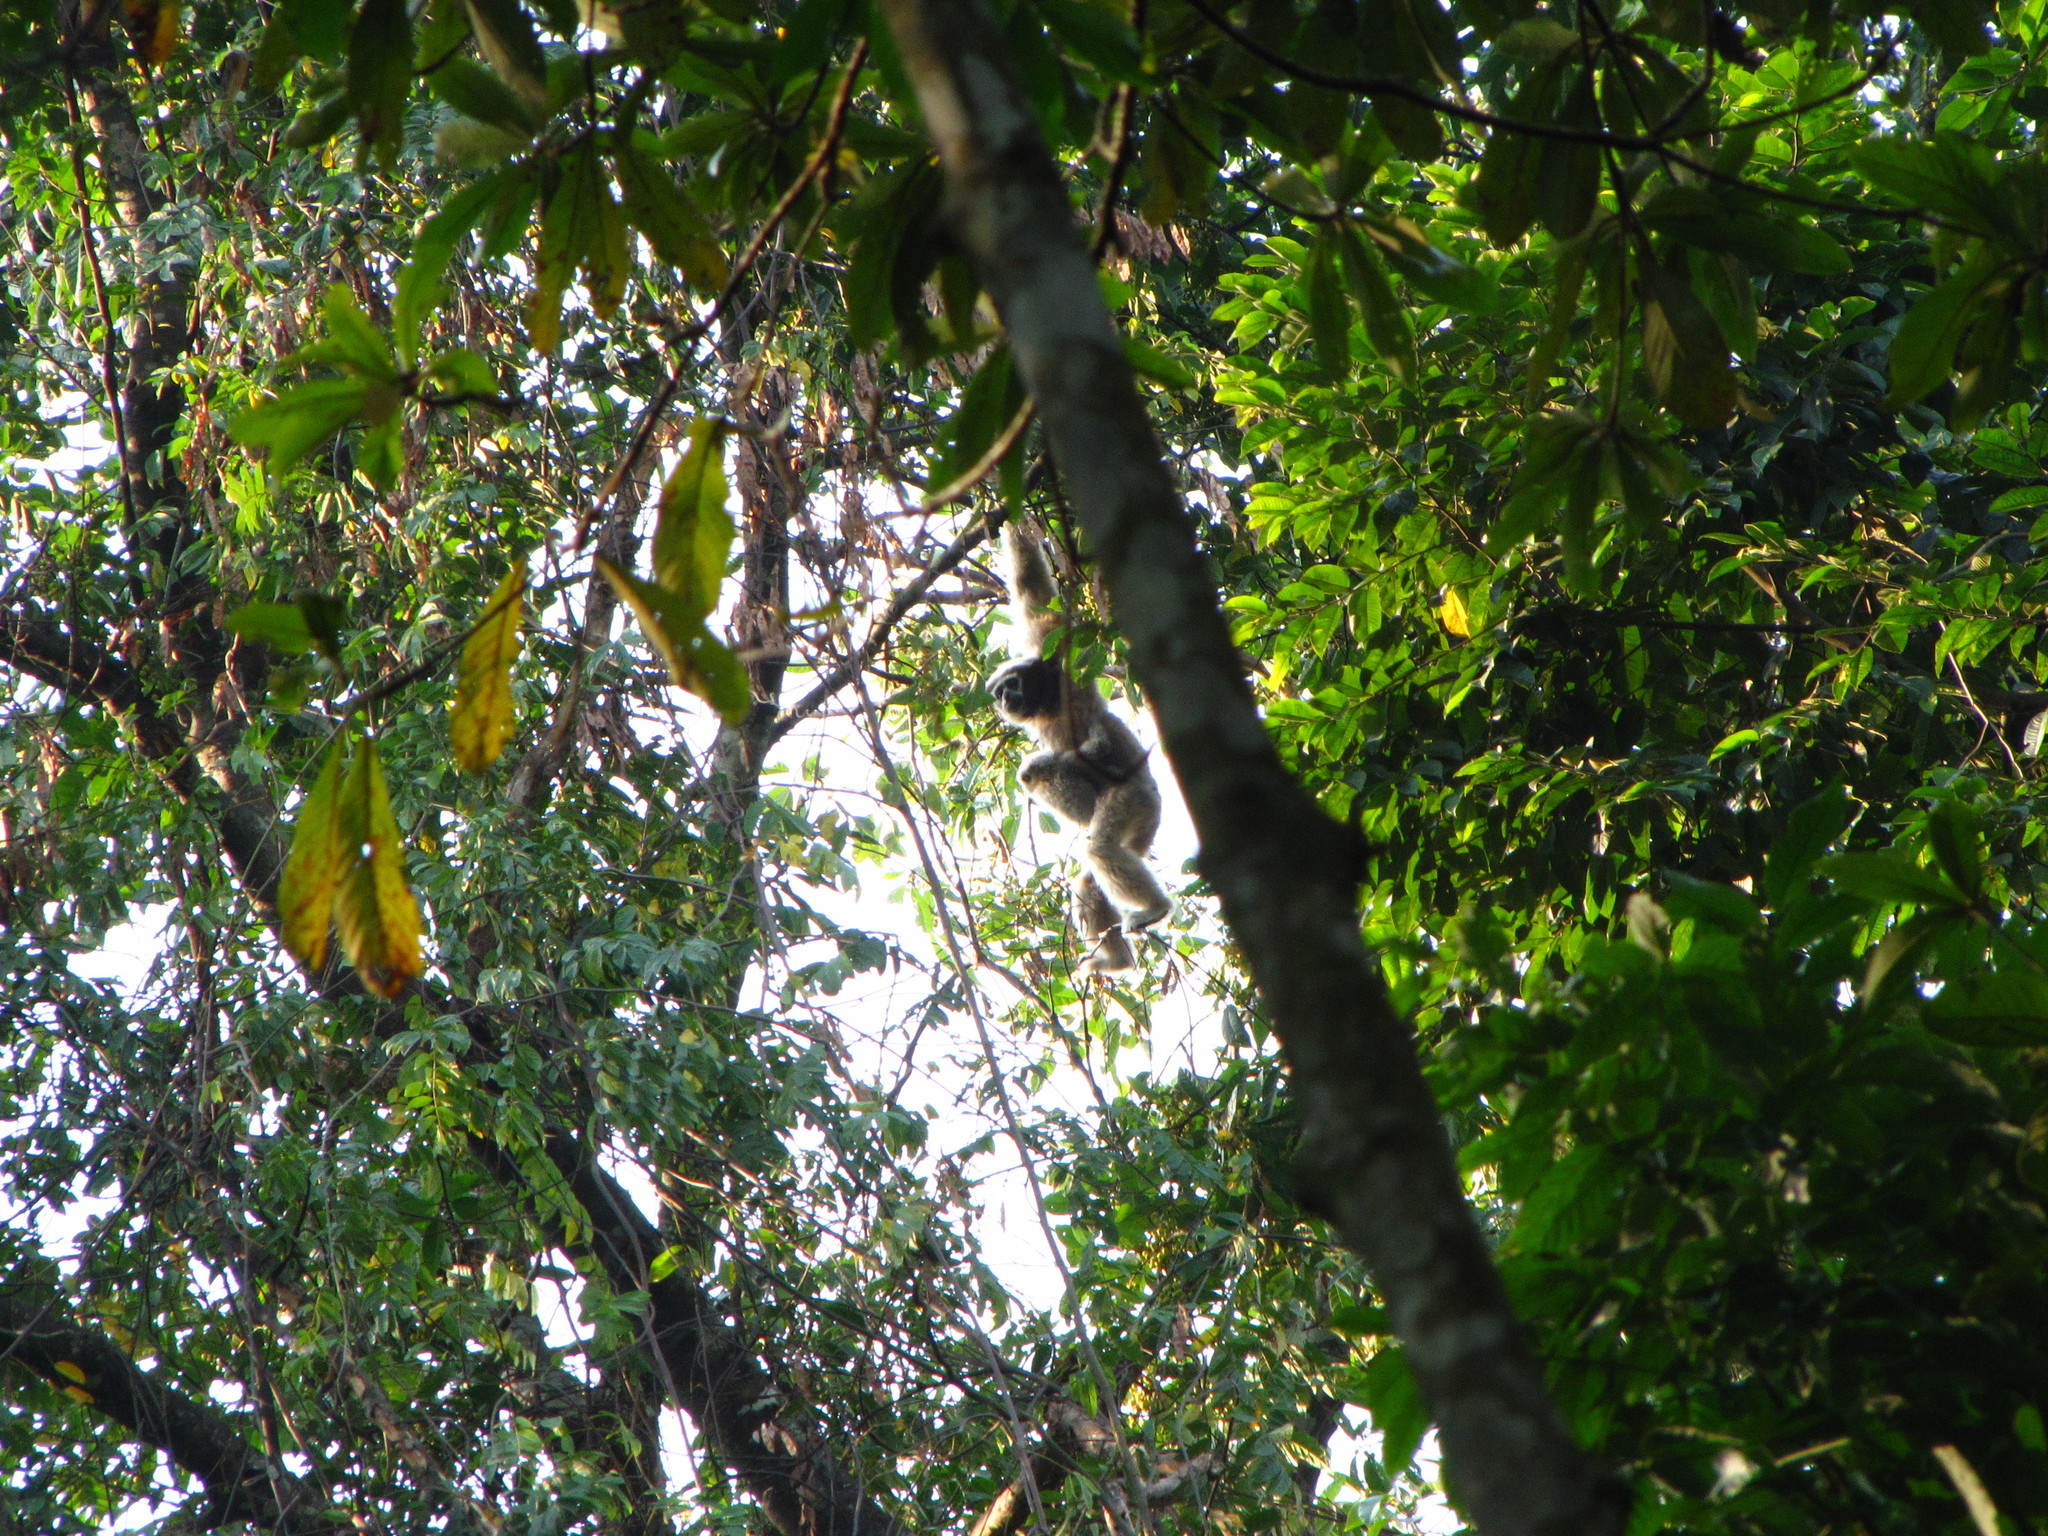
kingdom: Animalia
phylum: Chordata
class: Mammalia
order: Primates
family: Hylobatidae
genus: Hoolock
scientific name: Hoolock hoolock
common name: Western hoolock gibbon
